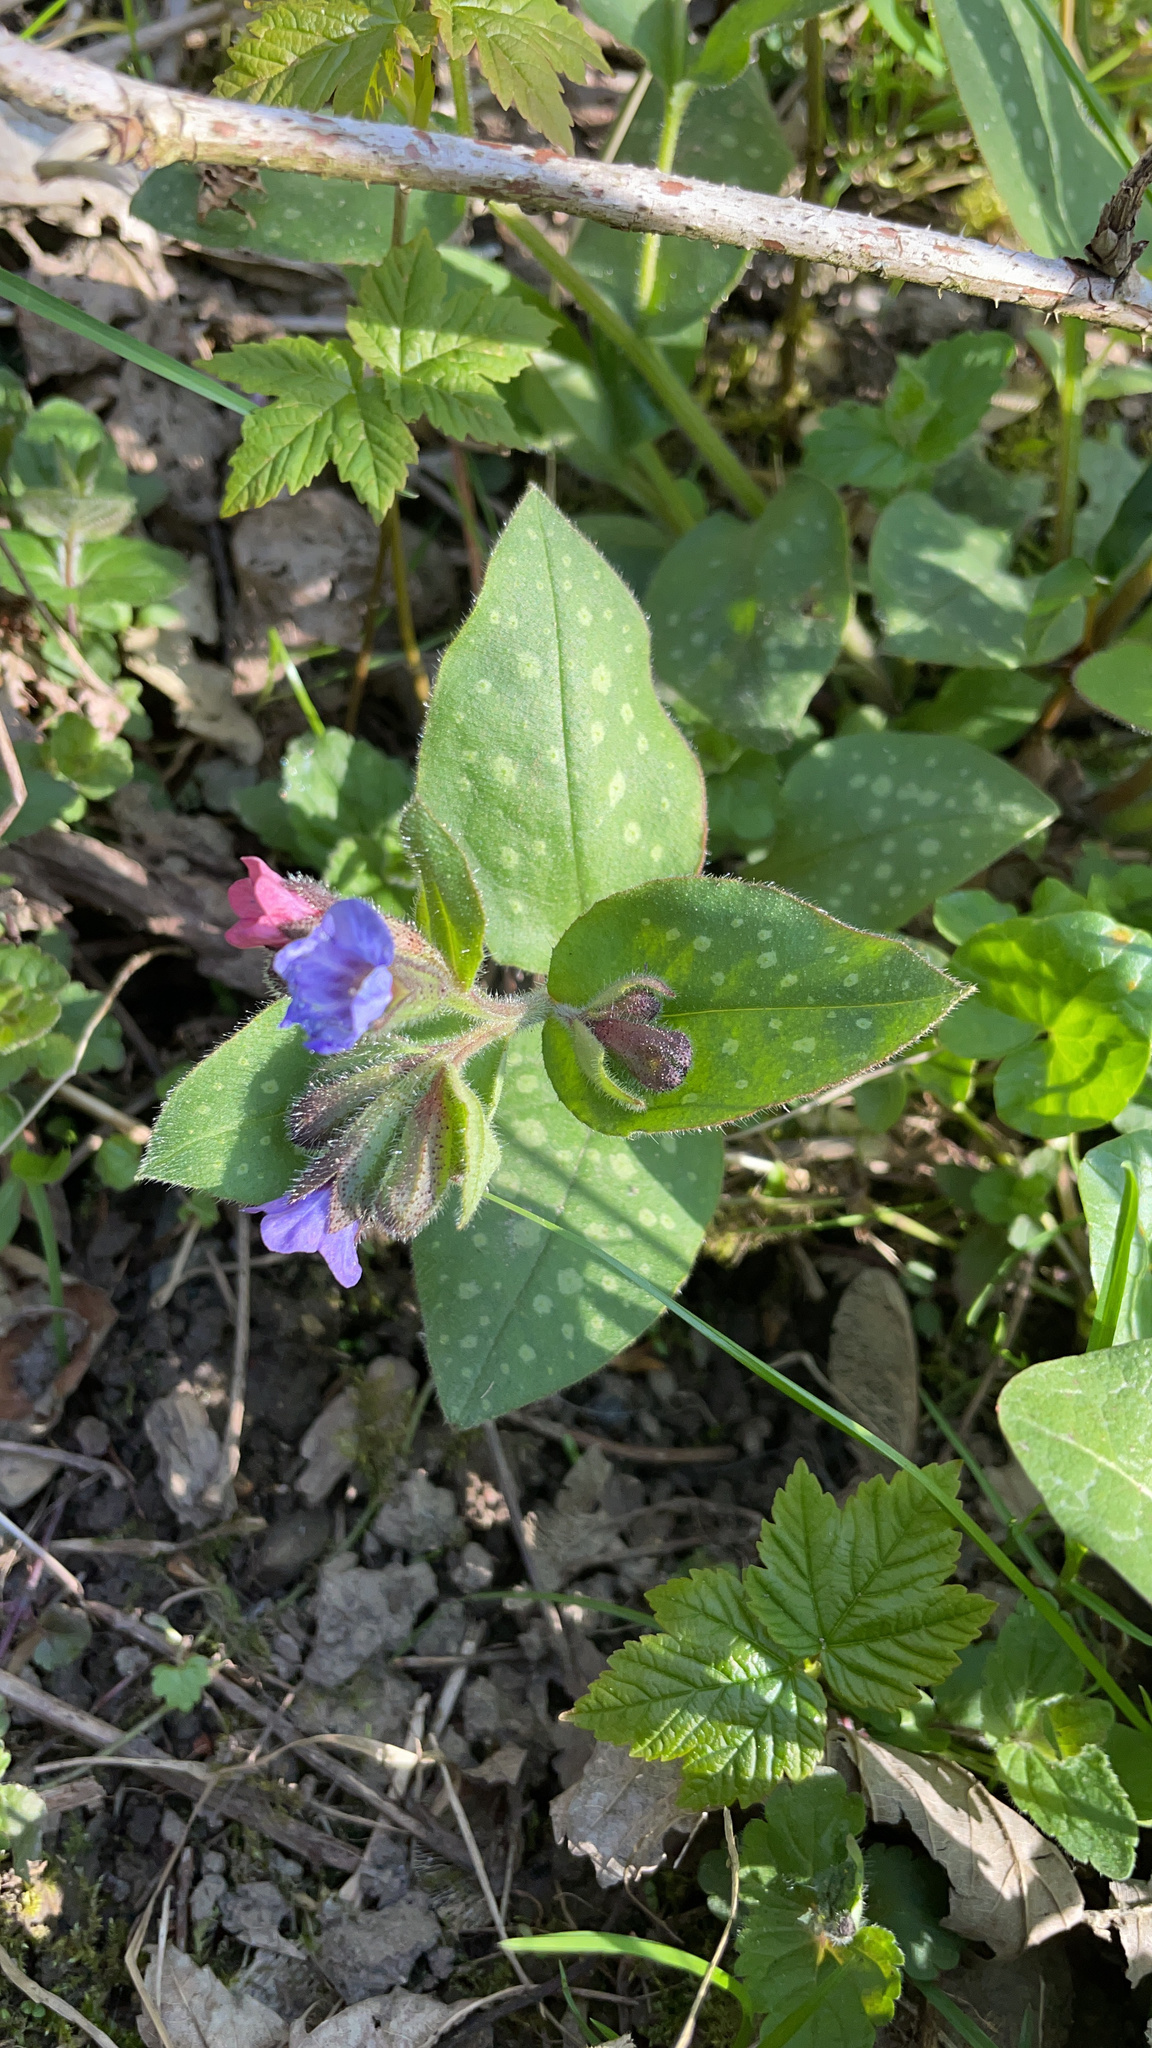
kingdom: Plantae
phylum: Tracheophyta
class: Magnoliopsida
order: Boraginales
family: Boraginaceae
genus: Pulmonaria
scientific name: Pulmonaria officinalis
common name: Lungwort
